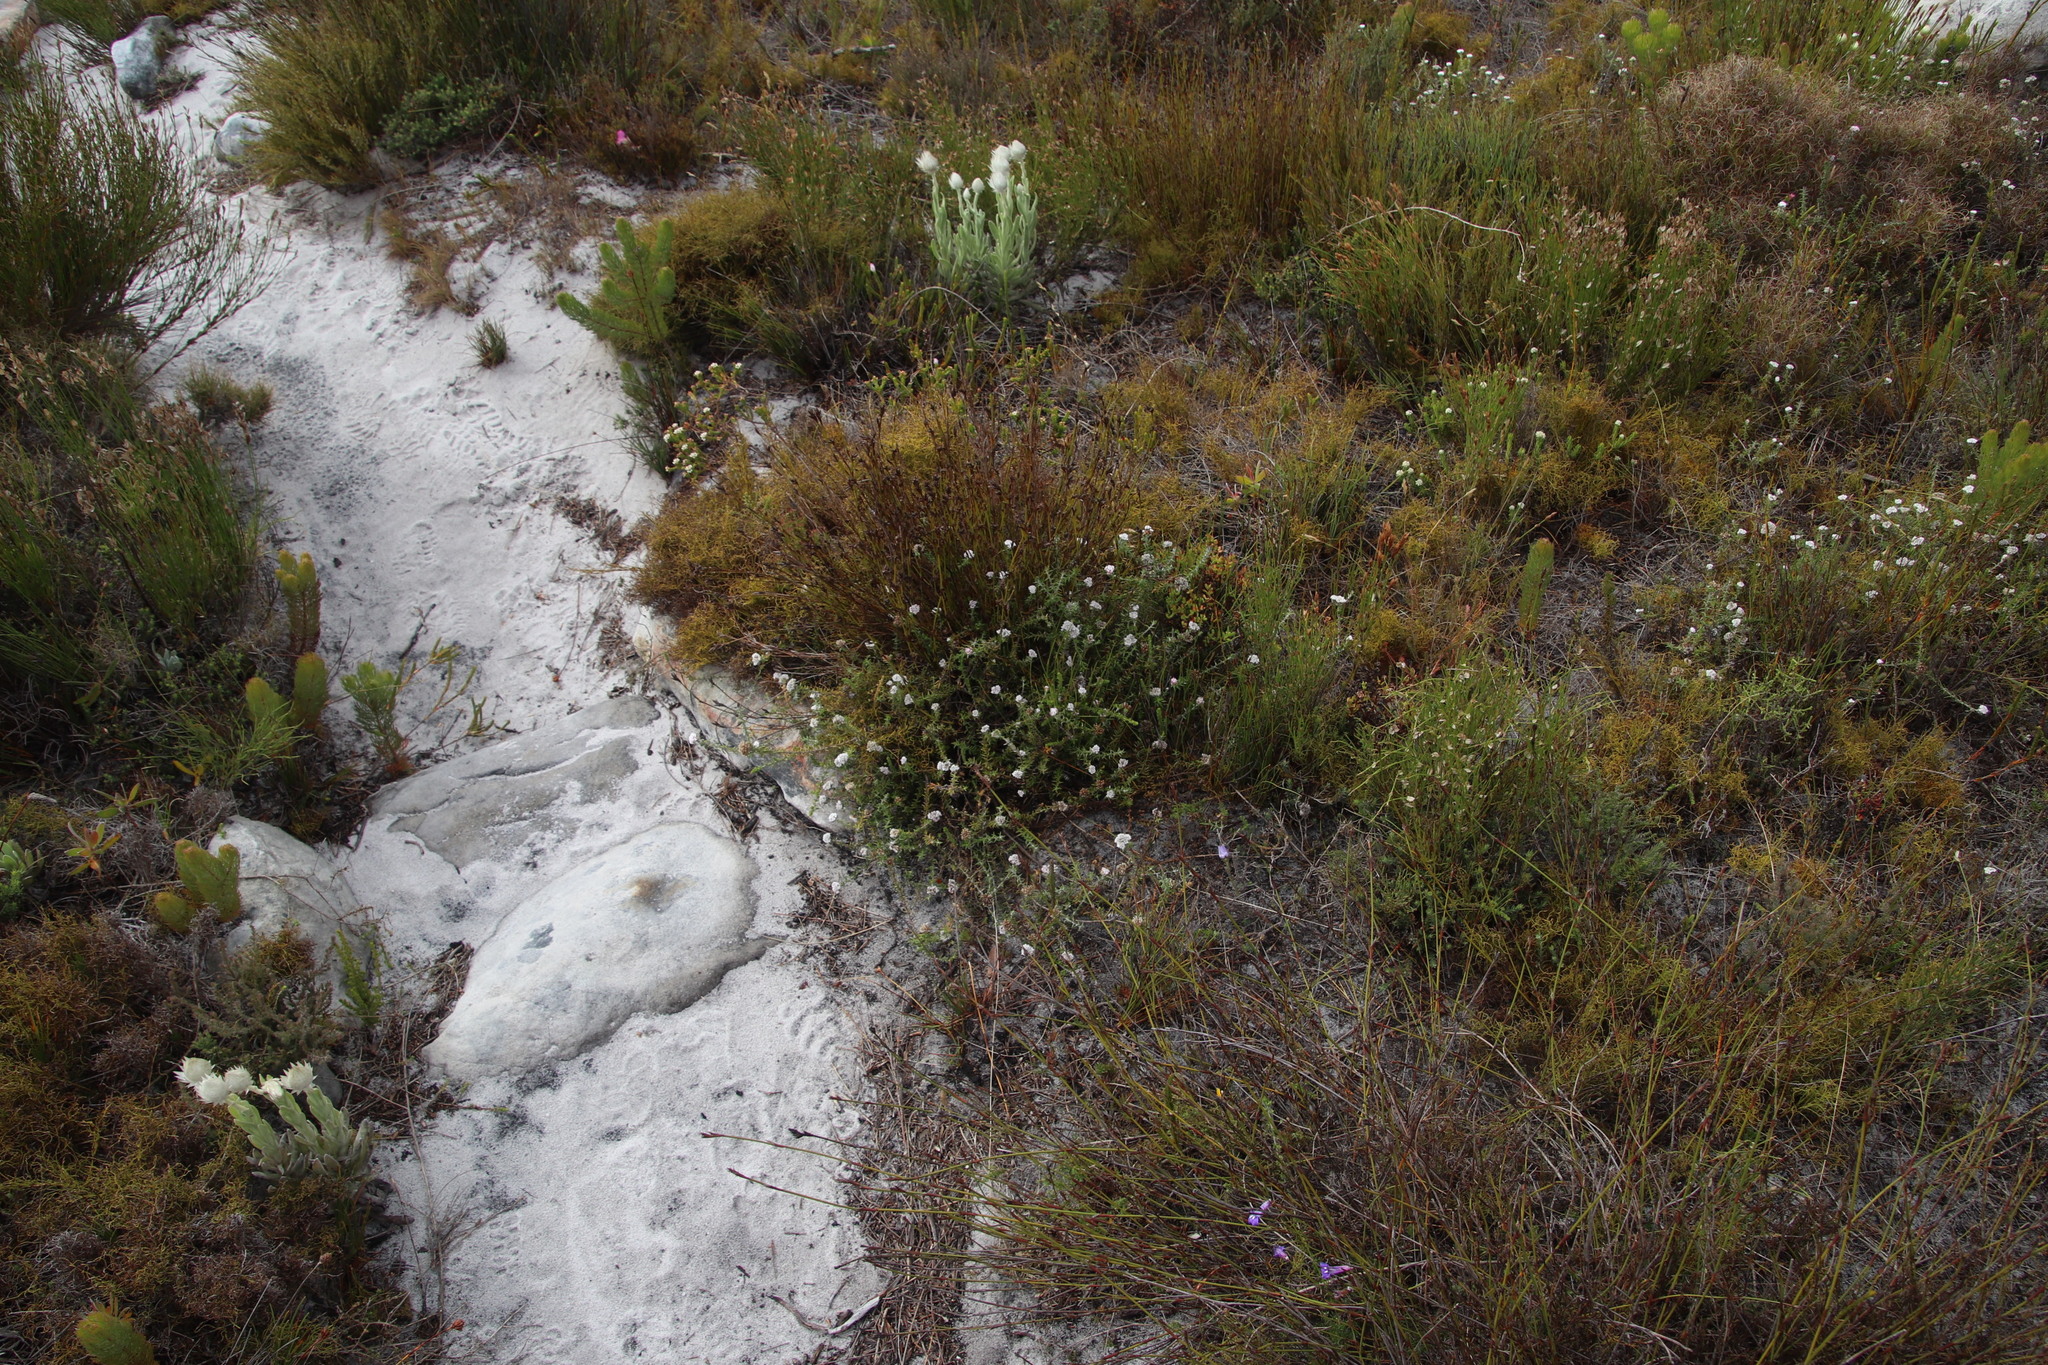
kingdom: Plantae
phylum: Tracheophyta
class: Magnoliopsida
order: Asterales
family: Asteraceae
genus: Metalasia
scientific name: Metalasia divergens
